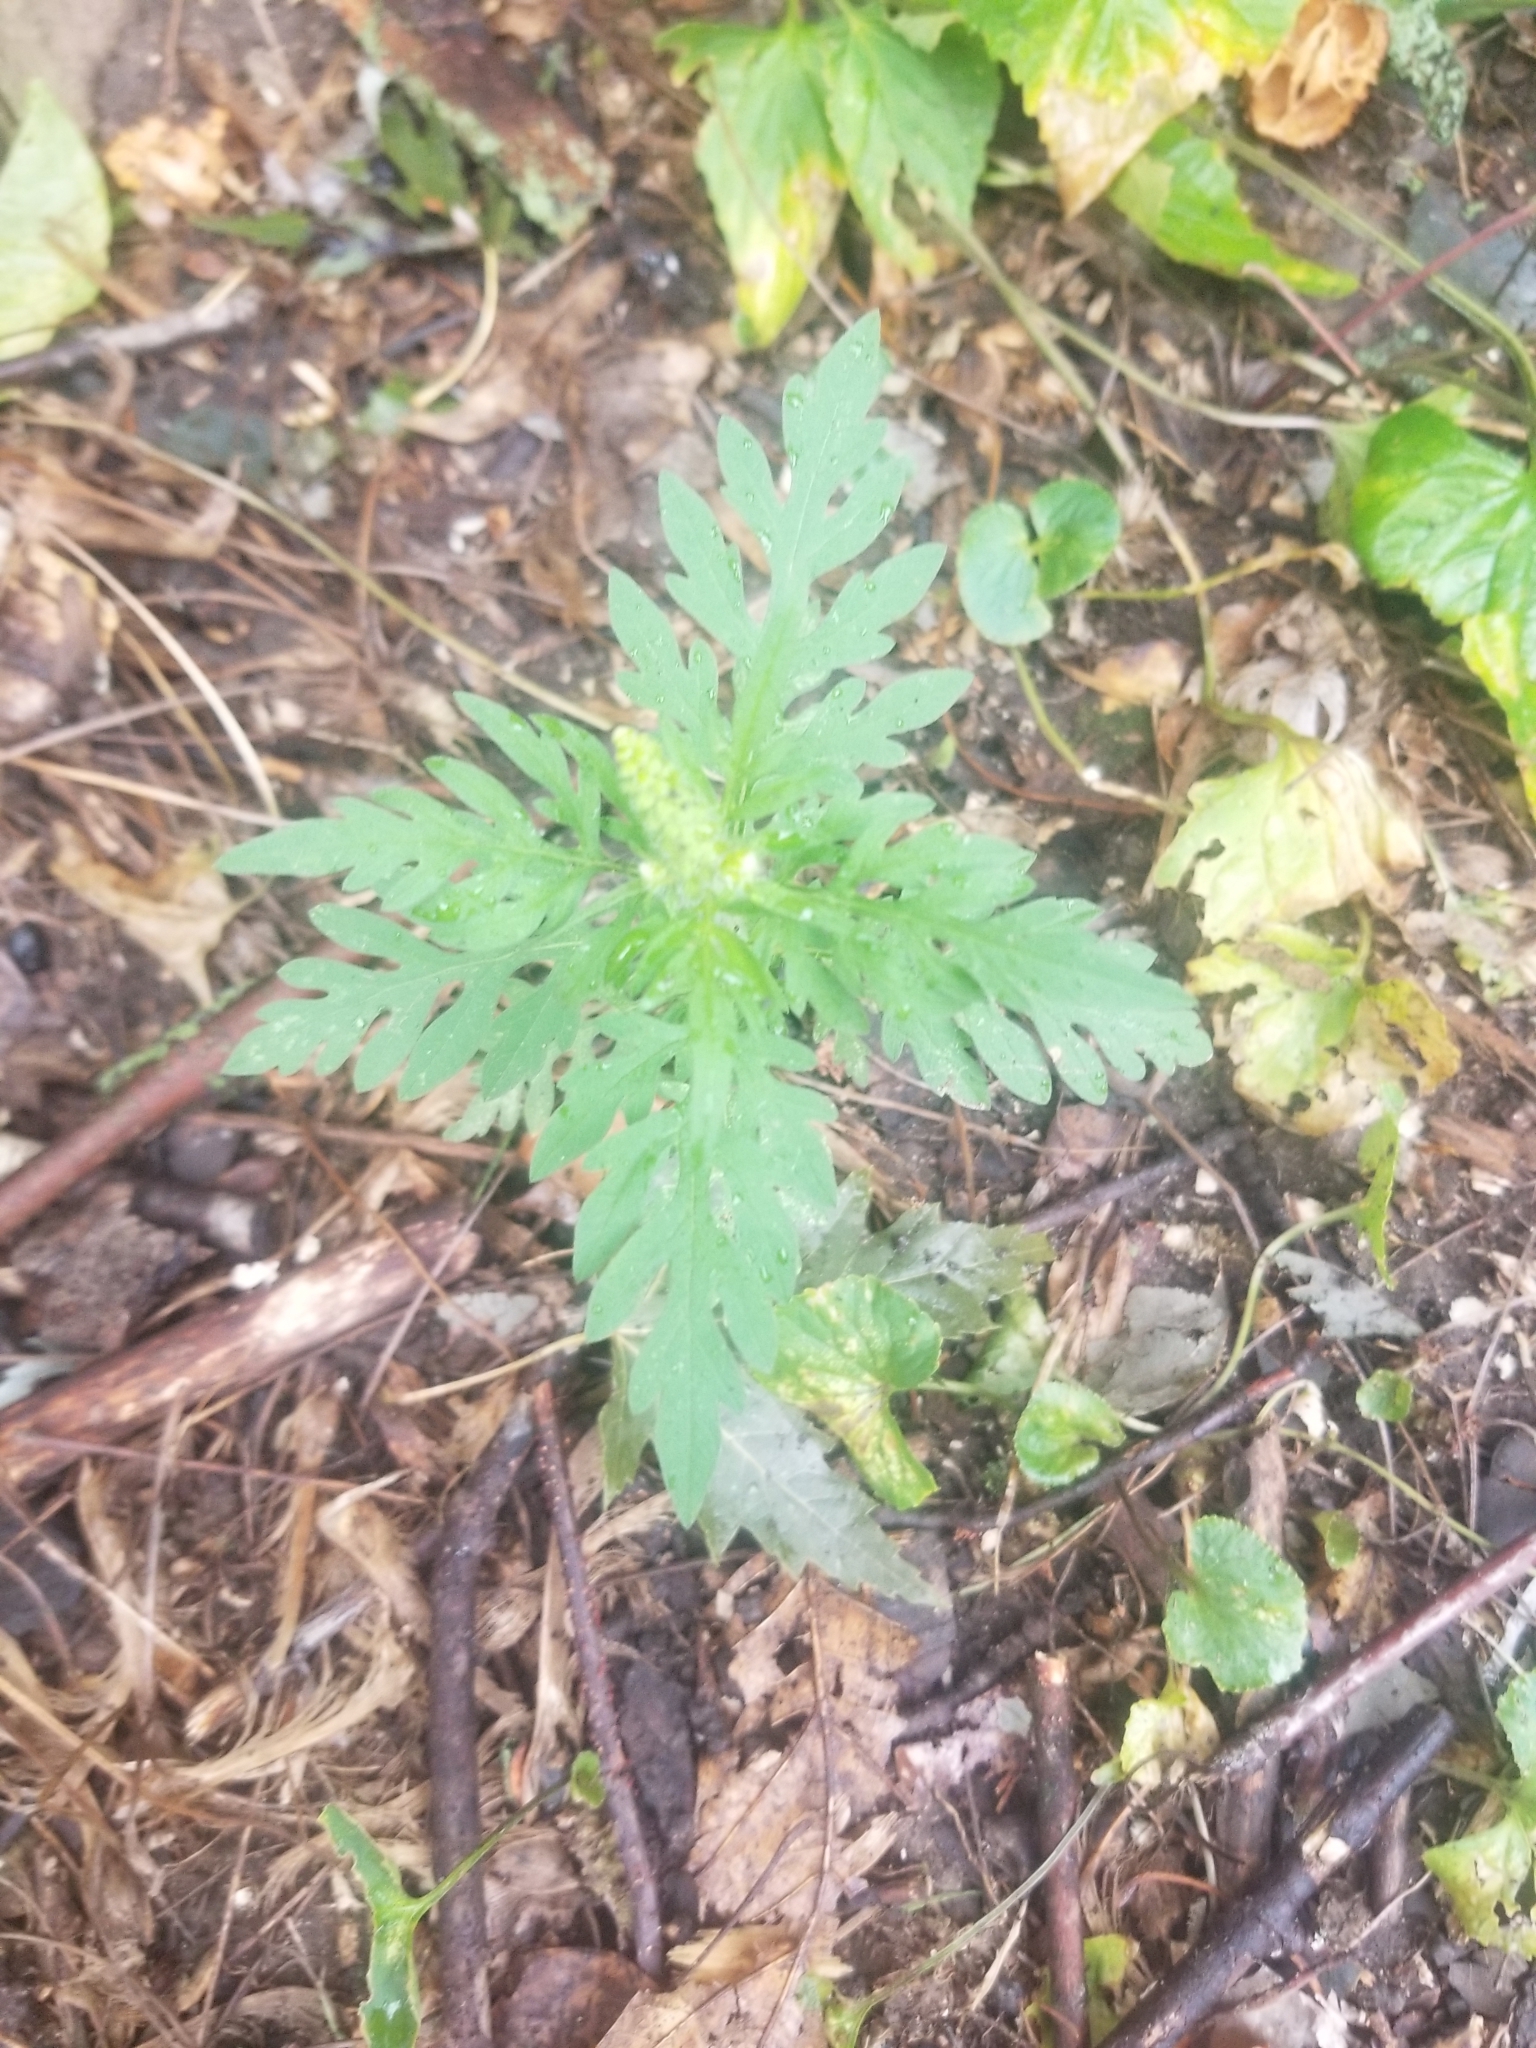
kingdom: Plantae
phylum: Tracheophyta
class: Magnoliopsida
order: Asterales
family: Asteraceae
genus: Ambrosia
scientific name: Ambrosia artemisiifolia
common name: Annual ragweed
